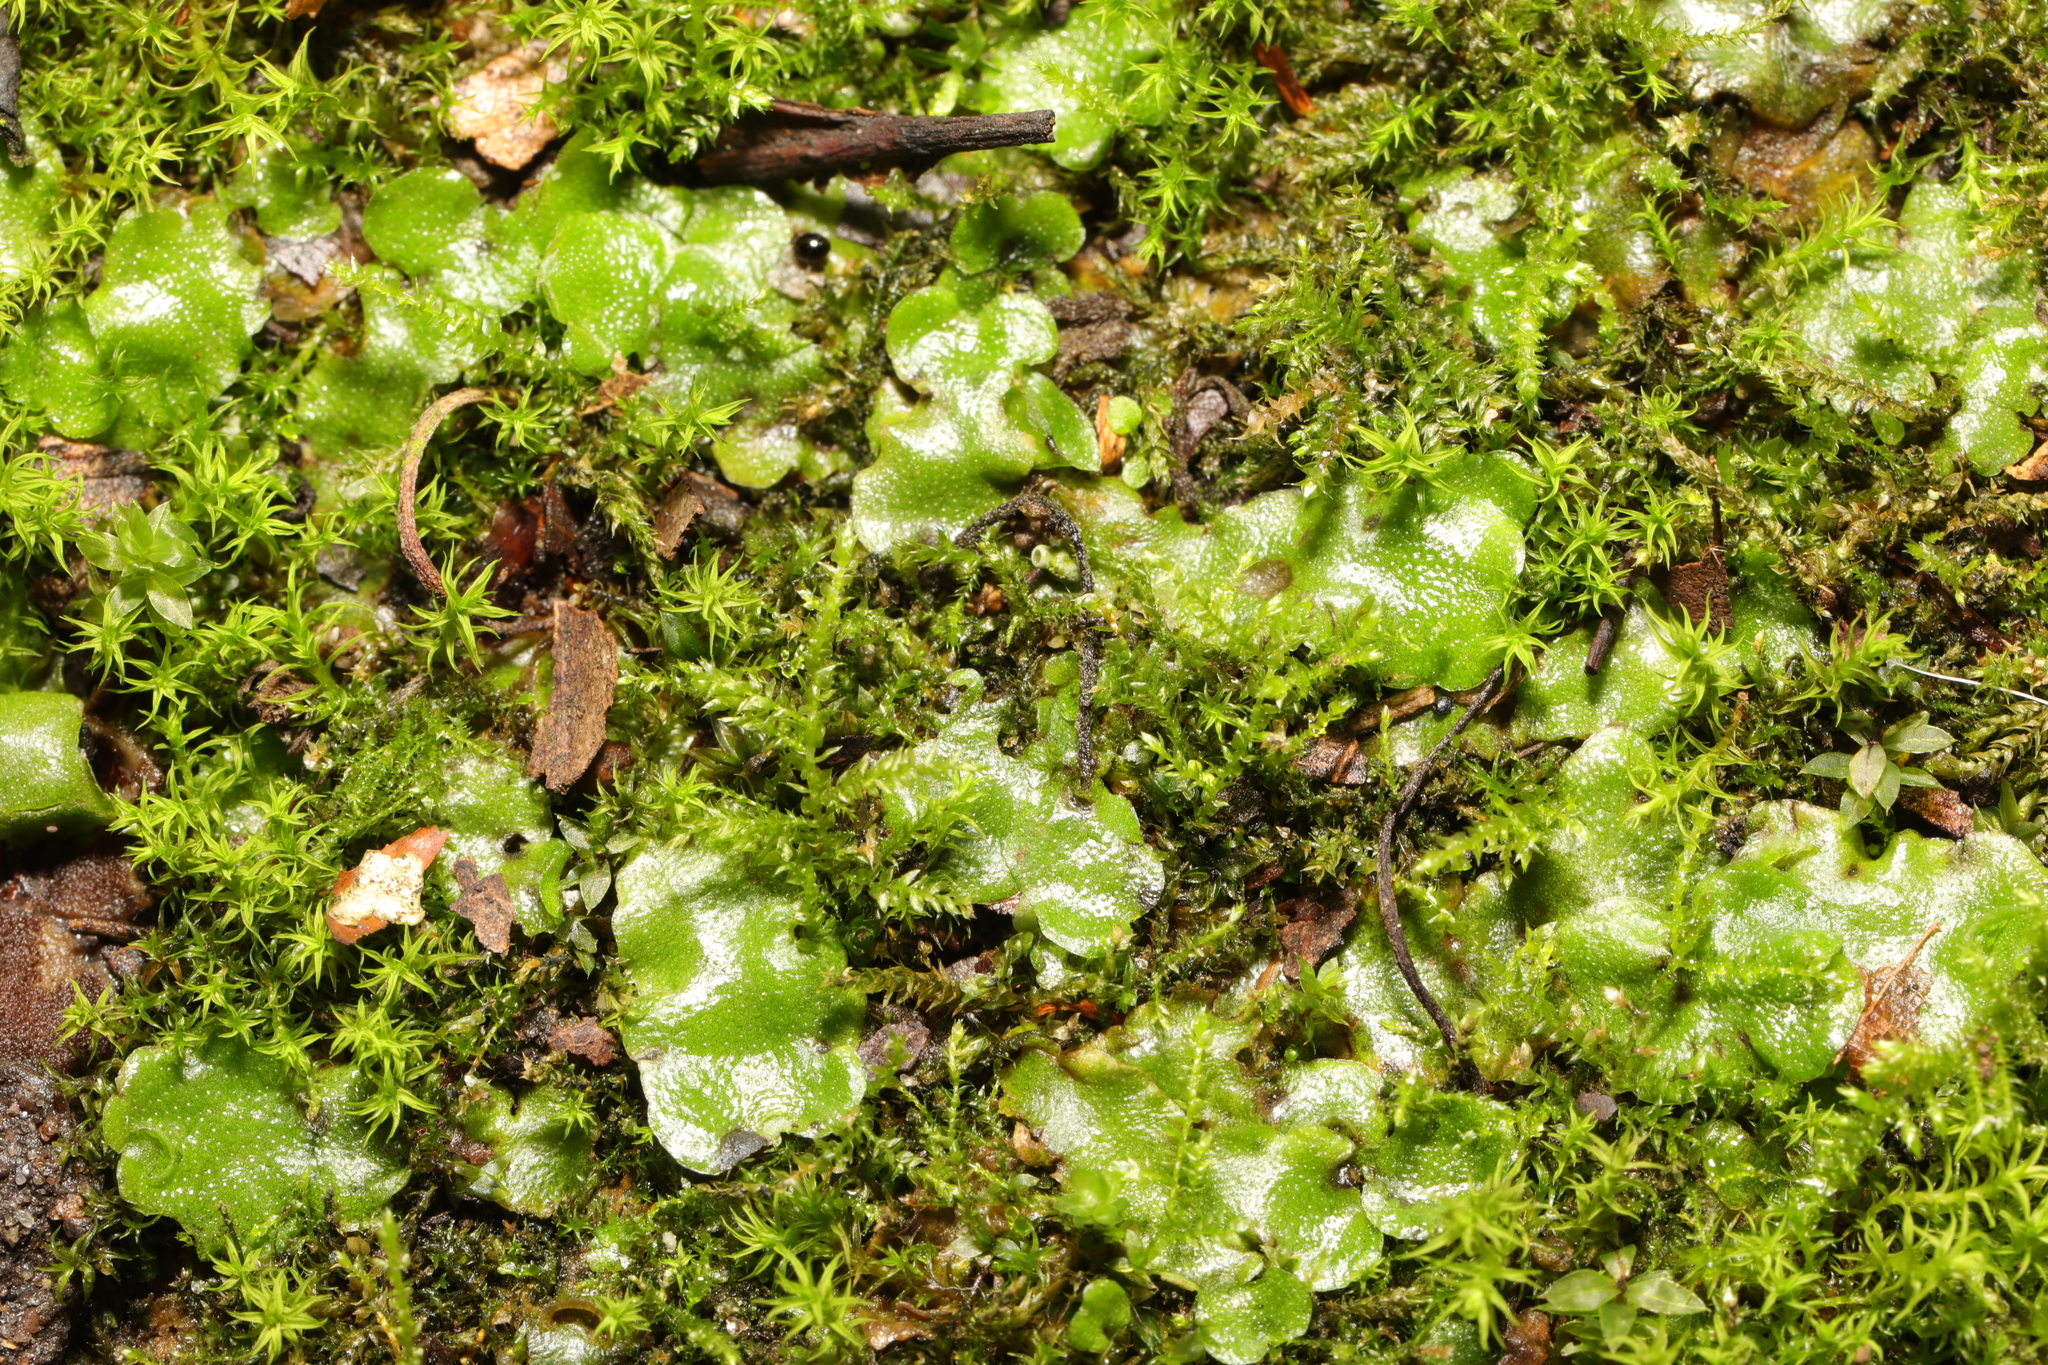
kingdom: Plantae
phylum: Marchantiophyta
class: Marchantiopsida
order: Lunulariales
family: Lunulariaceae
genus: Lunularia
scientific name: Lunularia cruciata
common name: Crescent-cup liverwort
